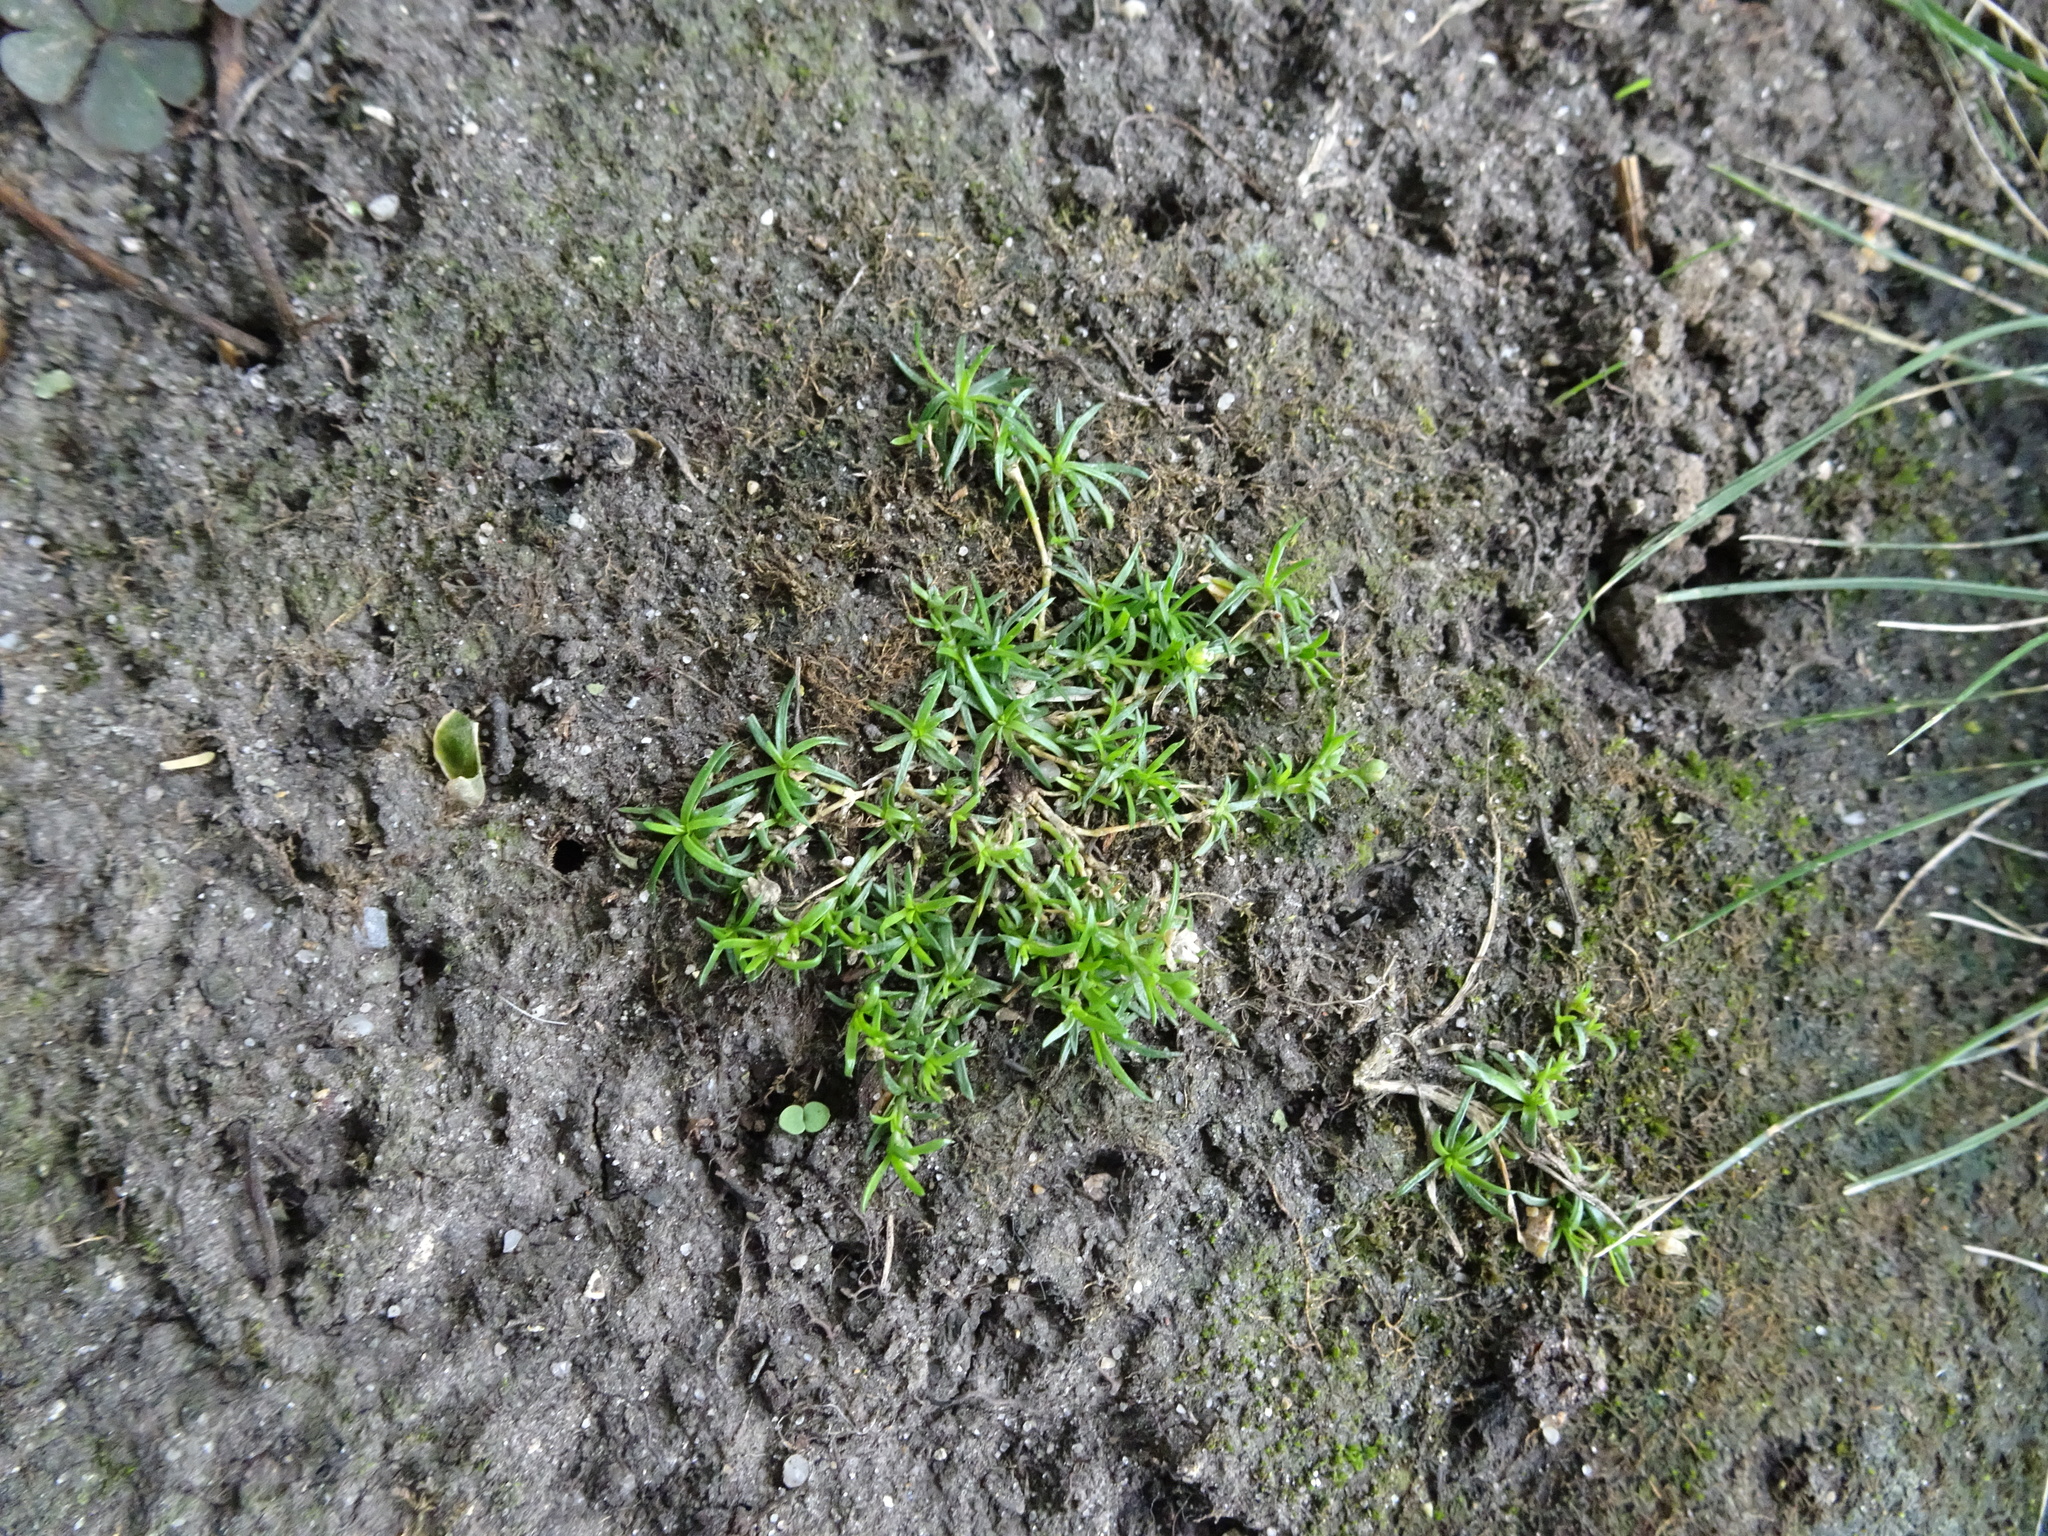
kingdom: Plantae
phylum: Tracheophyta
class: Magnoliopsida
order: Caryophyllales
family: Caryophyllaceae
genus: Sagina
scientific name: Sagina procumbens
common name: Procumbent pearlwort
